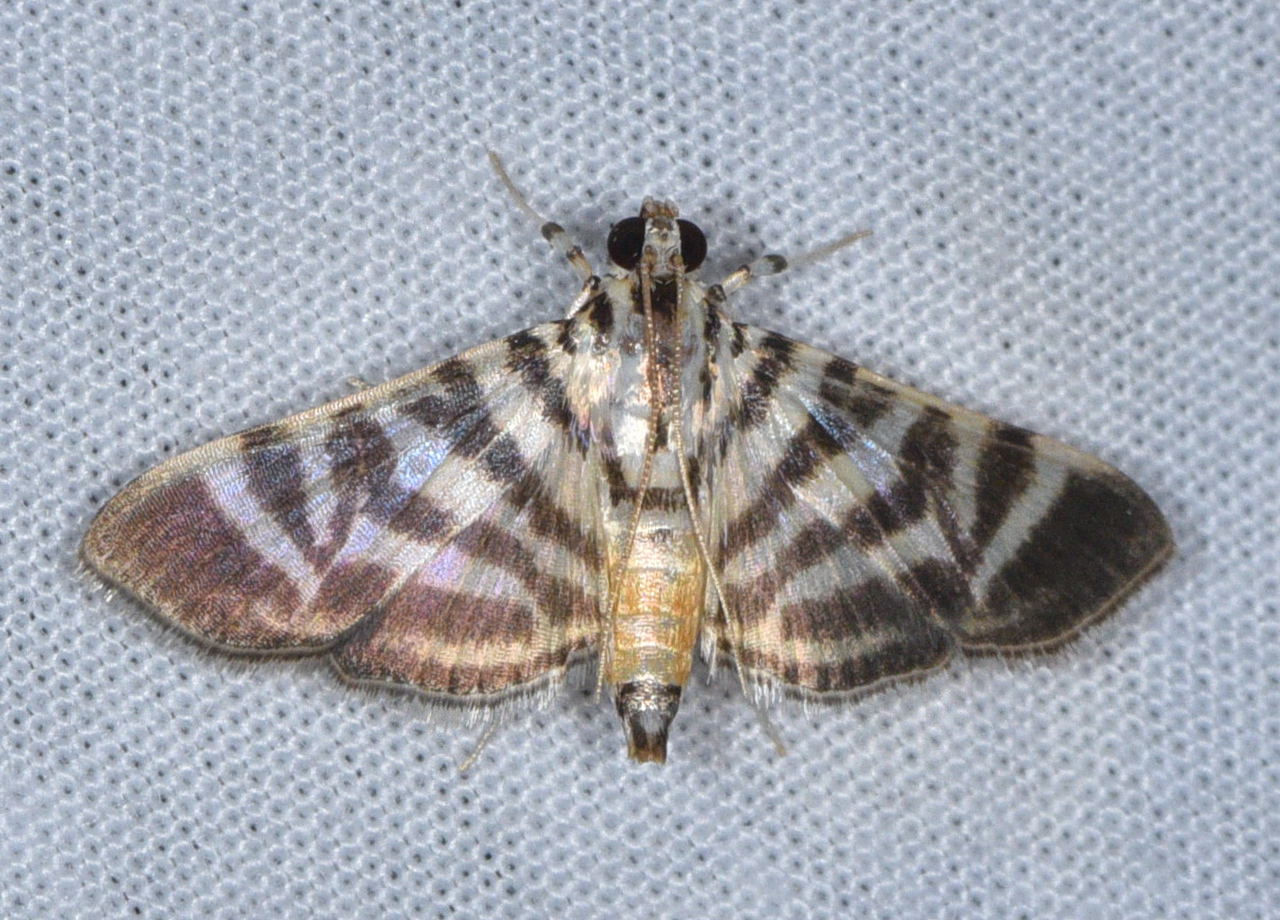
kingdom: Animalia
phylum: Arthropoda
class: Insecta
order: Lepidoptera
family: Crambidae
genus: Zebronia
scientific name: Zebronia Spilomela discordens
